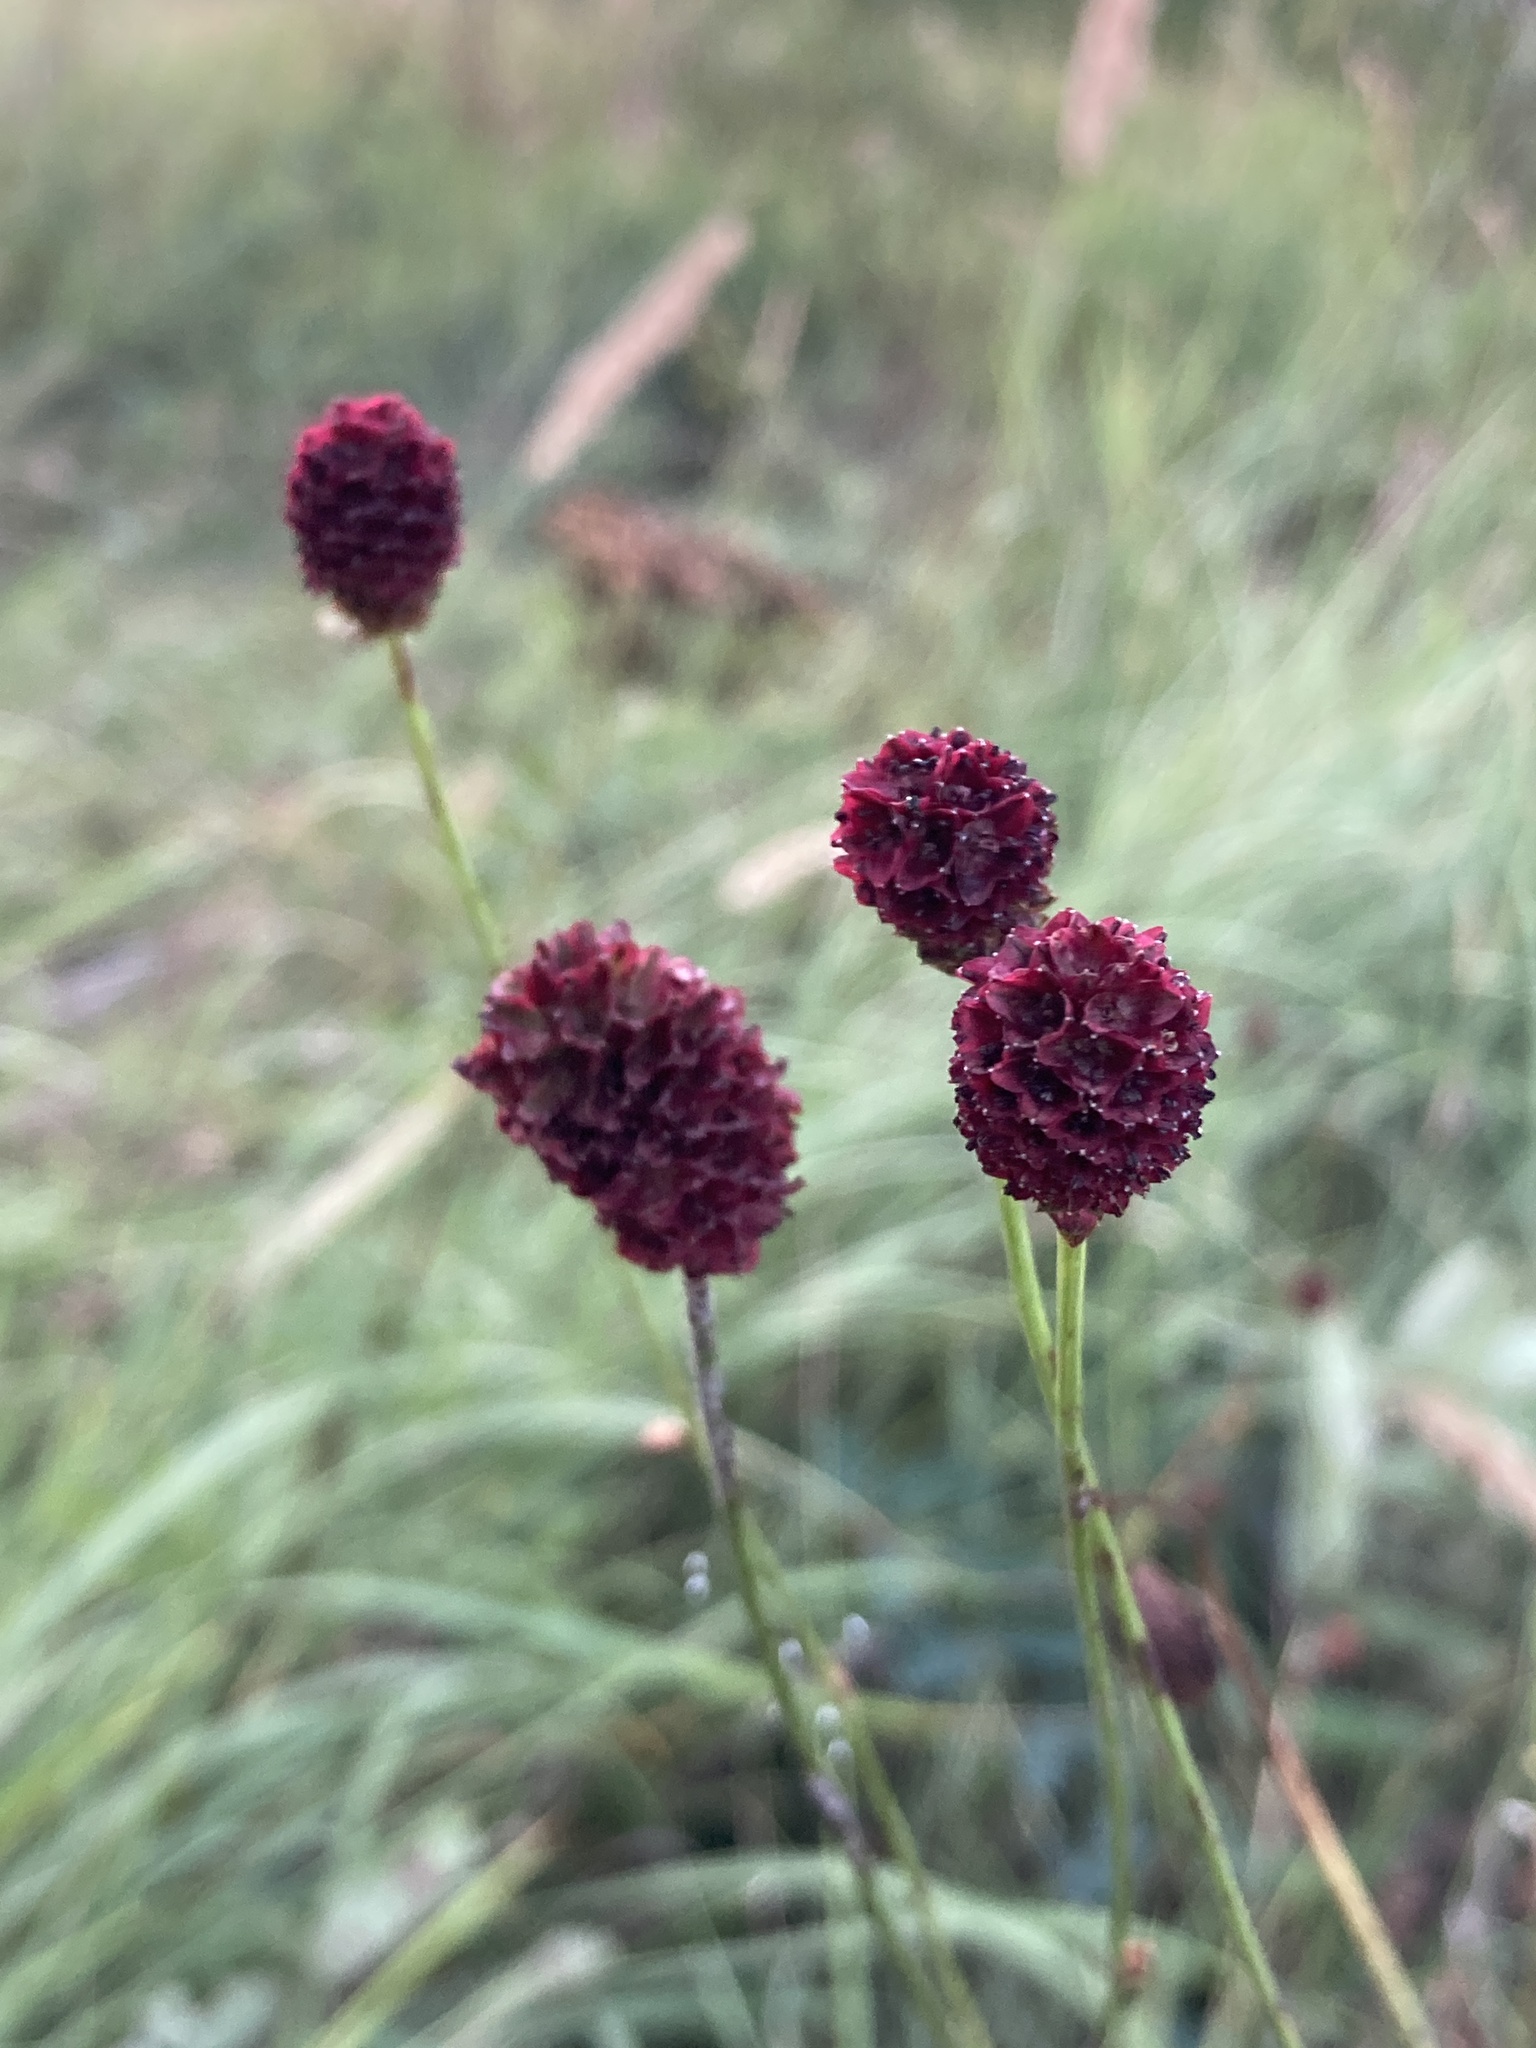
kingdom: Plantae
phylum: Tracheophyta
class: Magnoliopsida
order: Rosales
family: Rosaceae
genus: Sanguisorba
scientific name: Sanguisorba officinalis
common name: Great burnet
